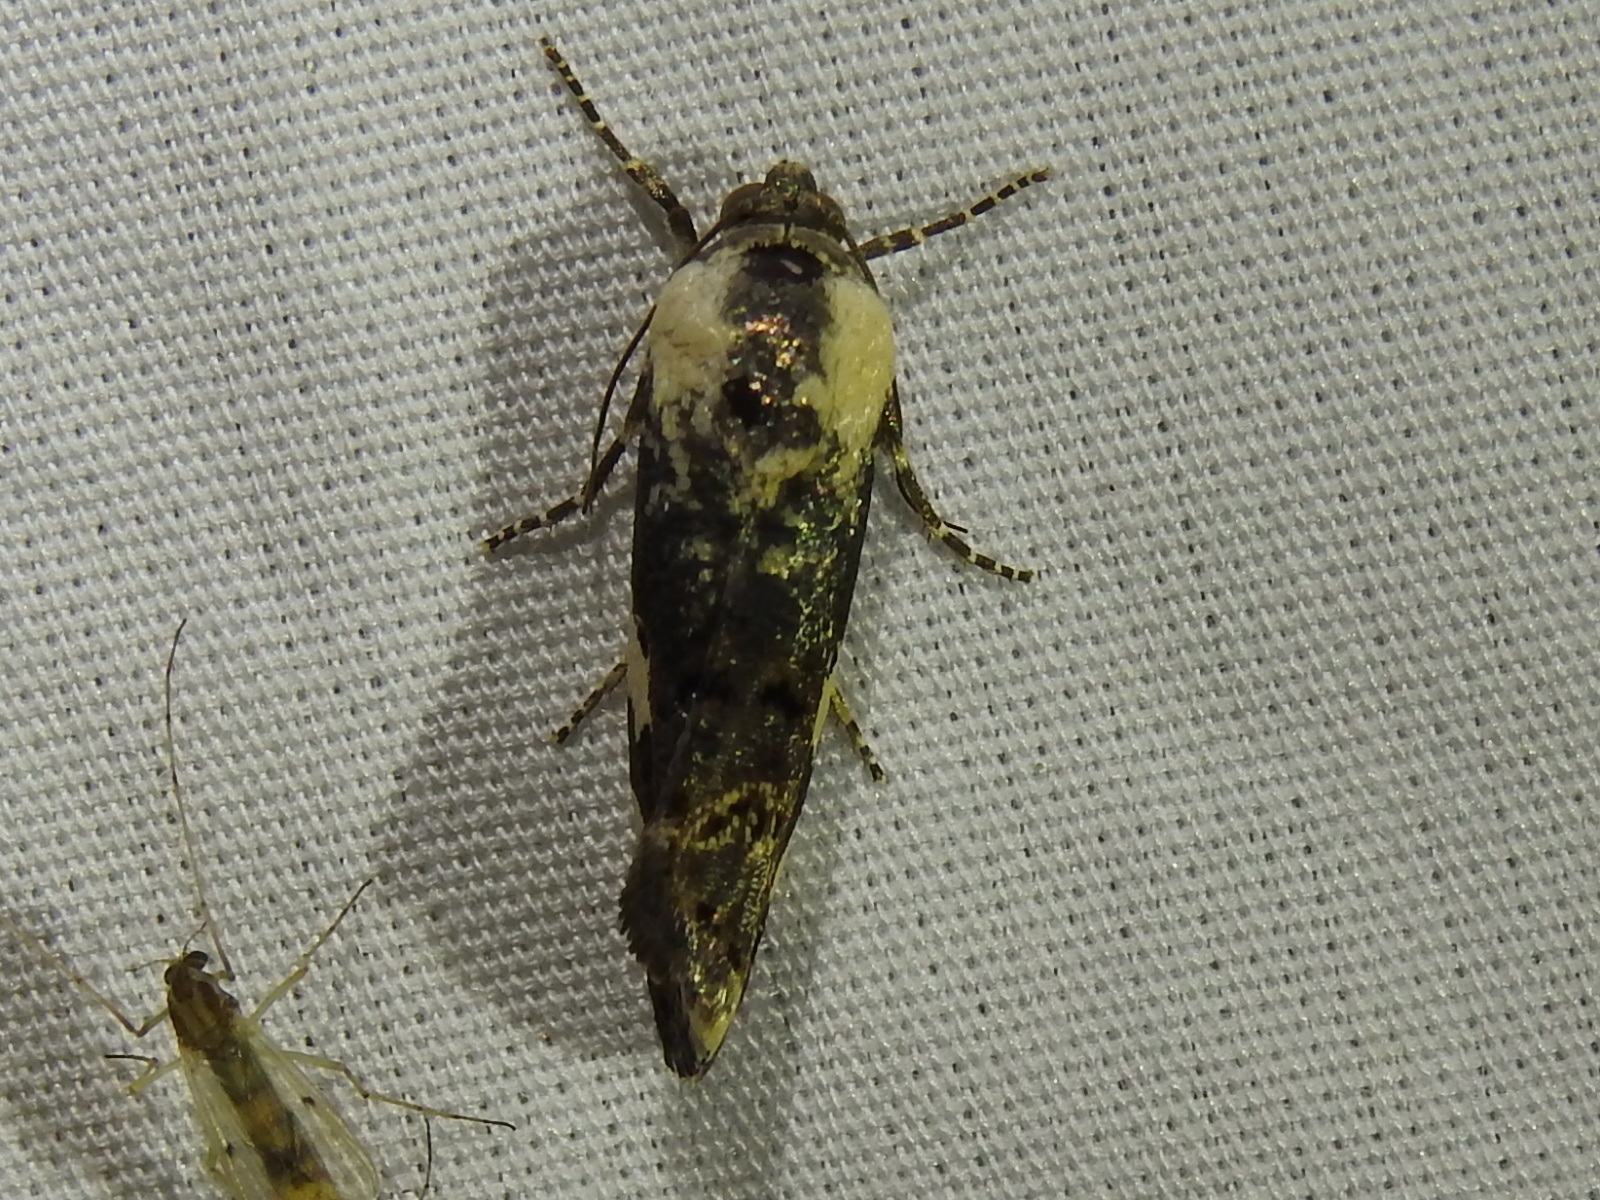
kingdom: Animalia
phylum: Arthropoda
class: Insecta
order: Lepidoptera
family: Noctuidae
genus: Acontia
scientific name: Acontia aprica
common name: Nun
